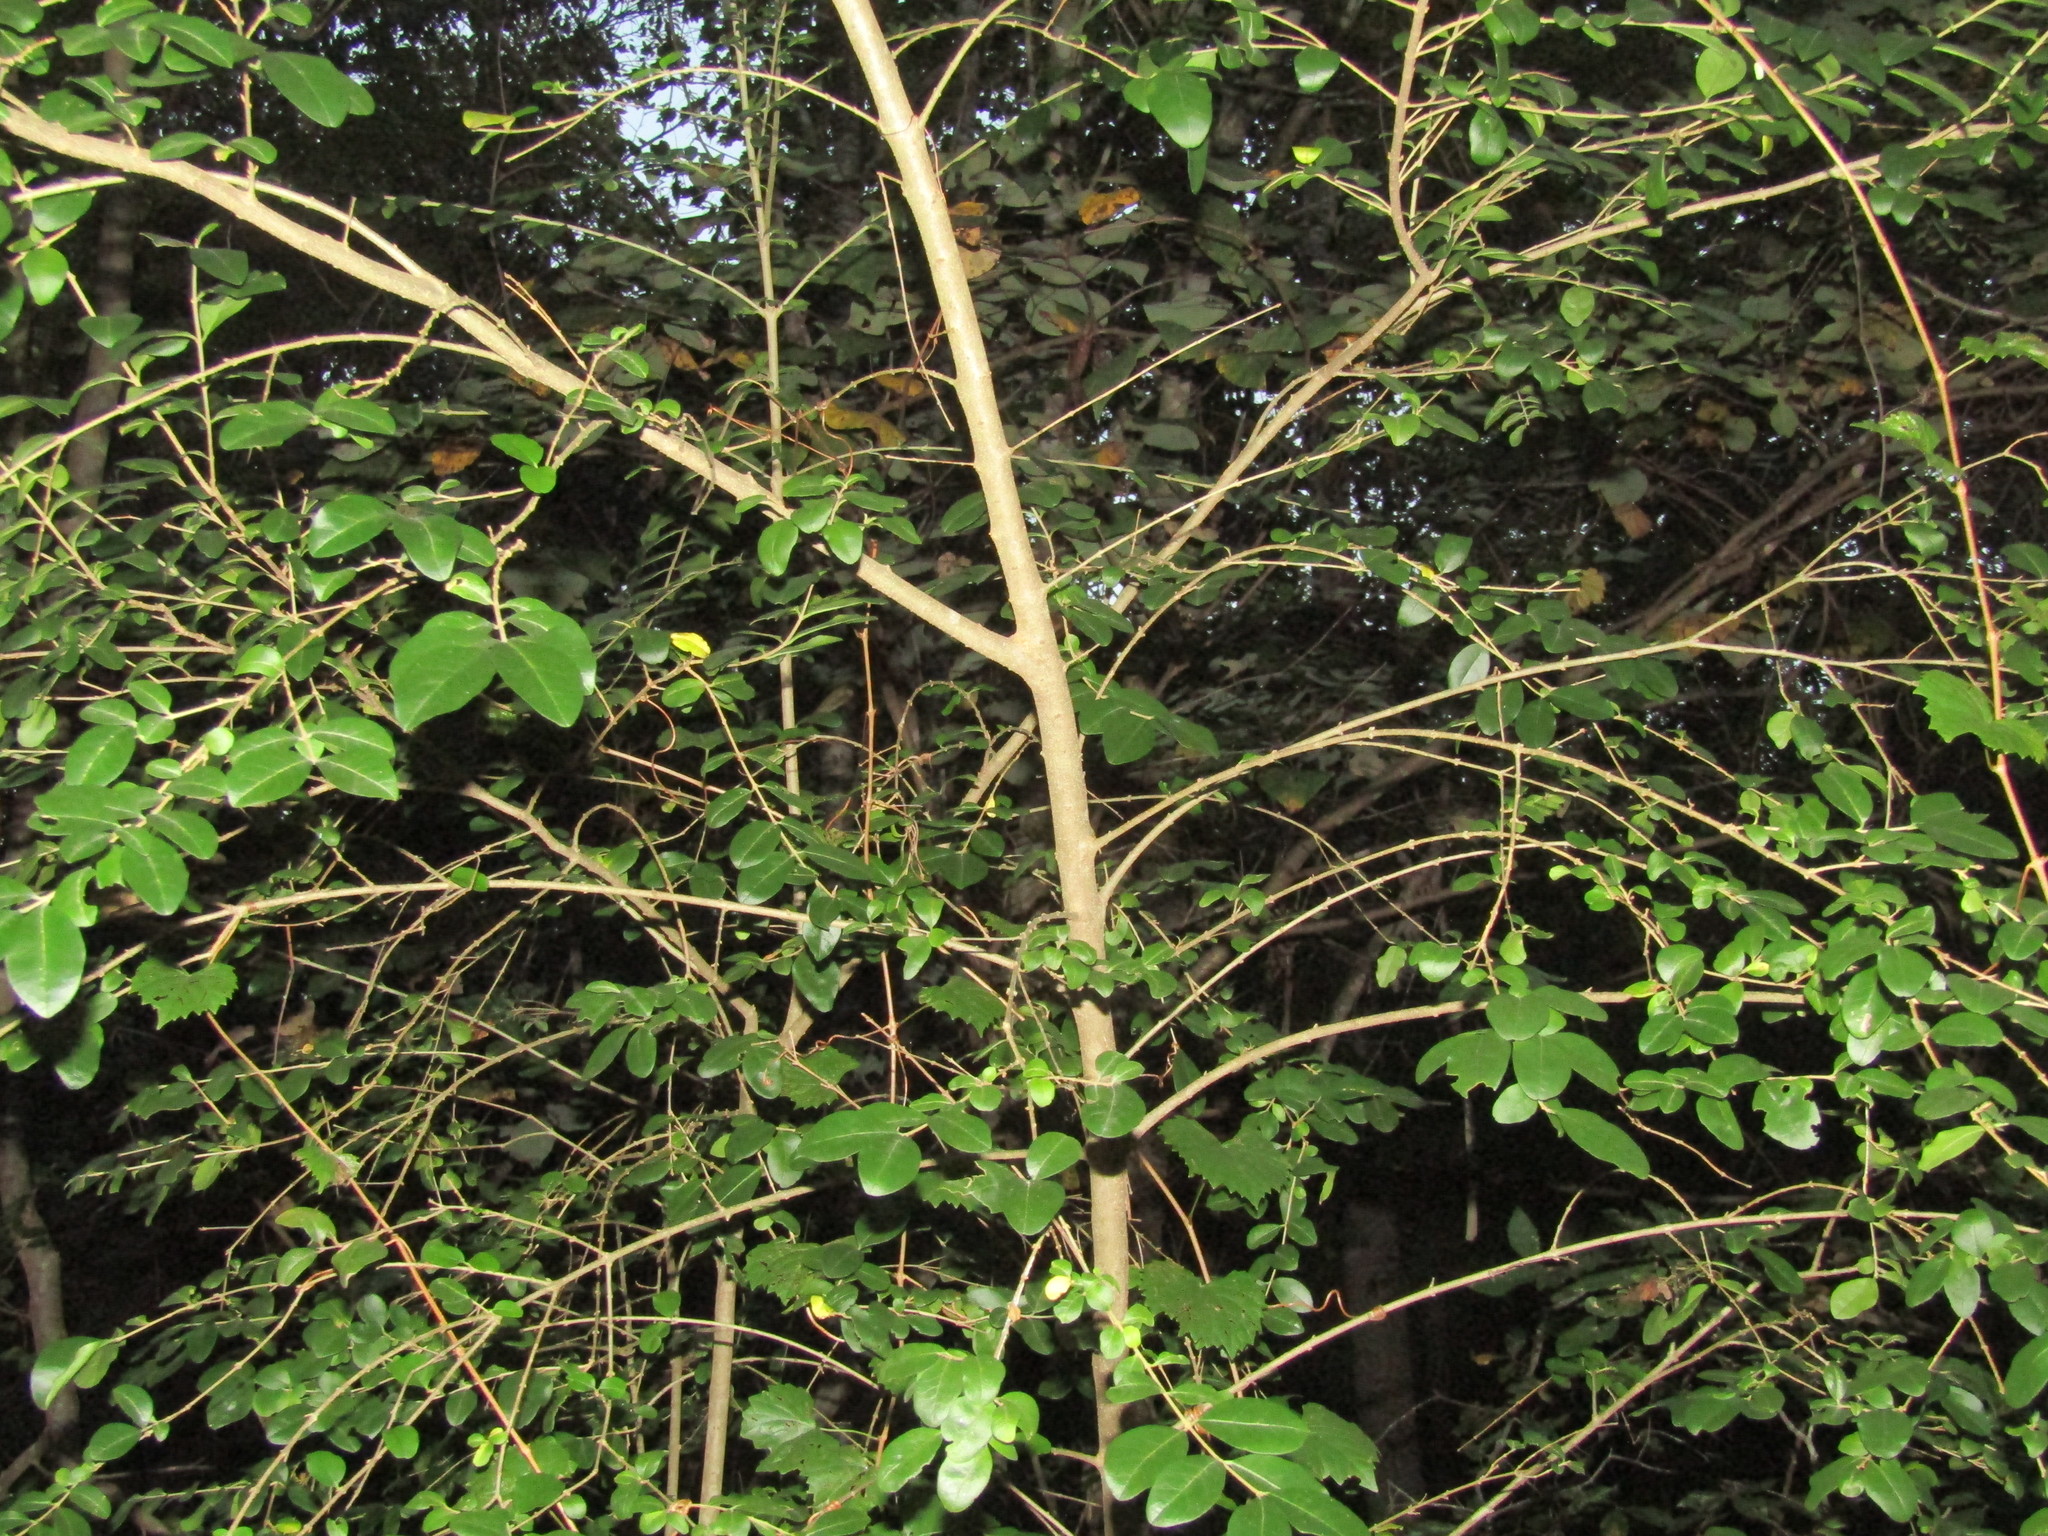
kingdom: Plantae
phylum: Tracheophyta
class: Magnoliopsida
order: Lamiales
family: Oleaceae
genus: Ligustrum
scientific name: Ligustrum sinense
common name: Chinese privet
